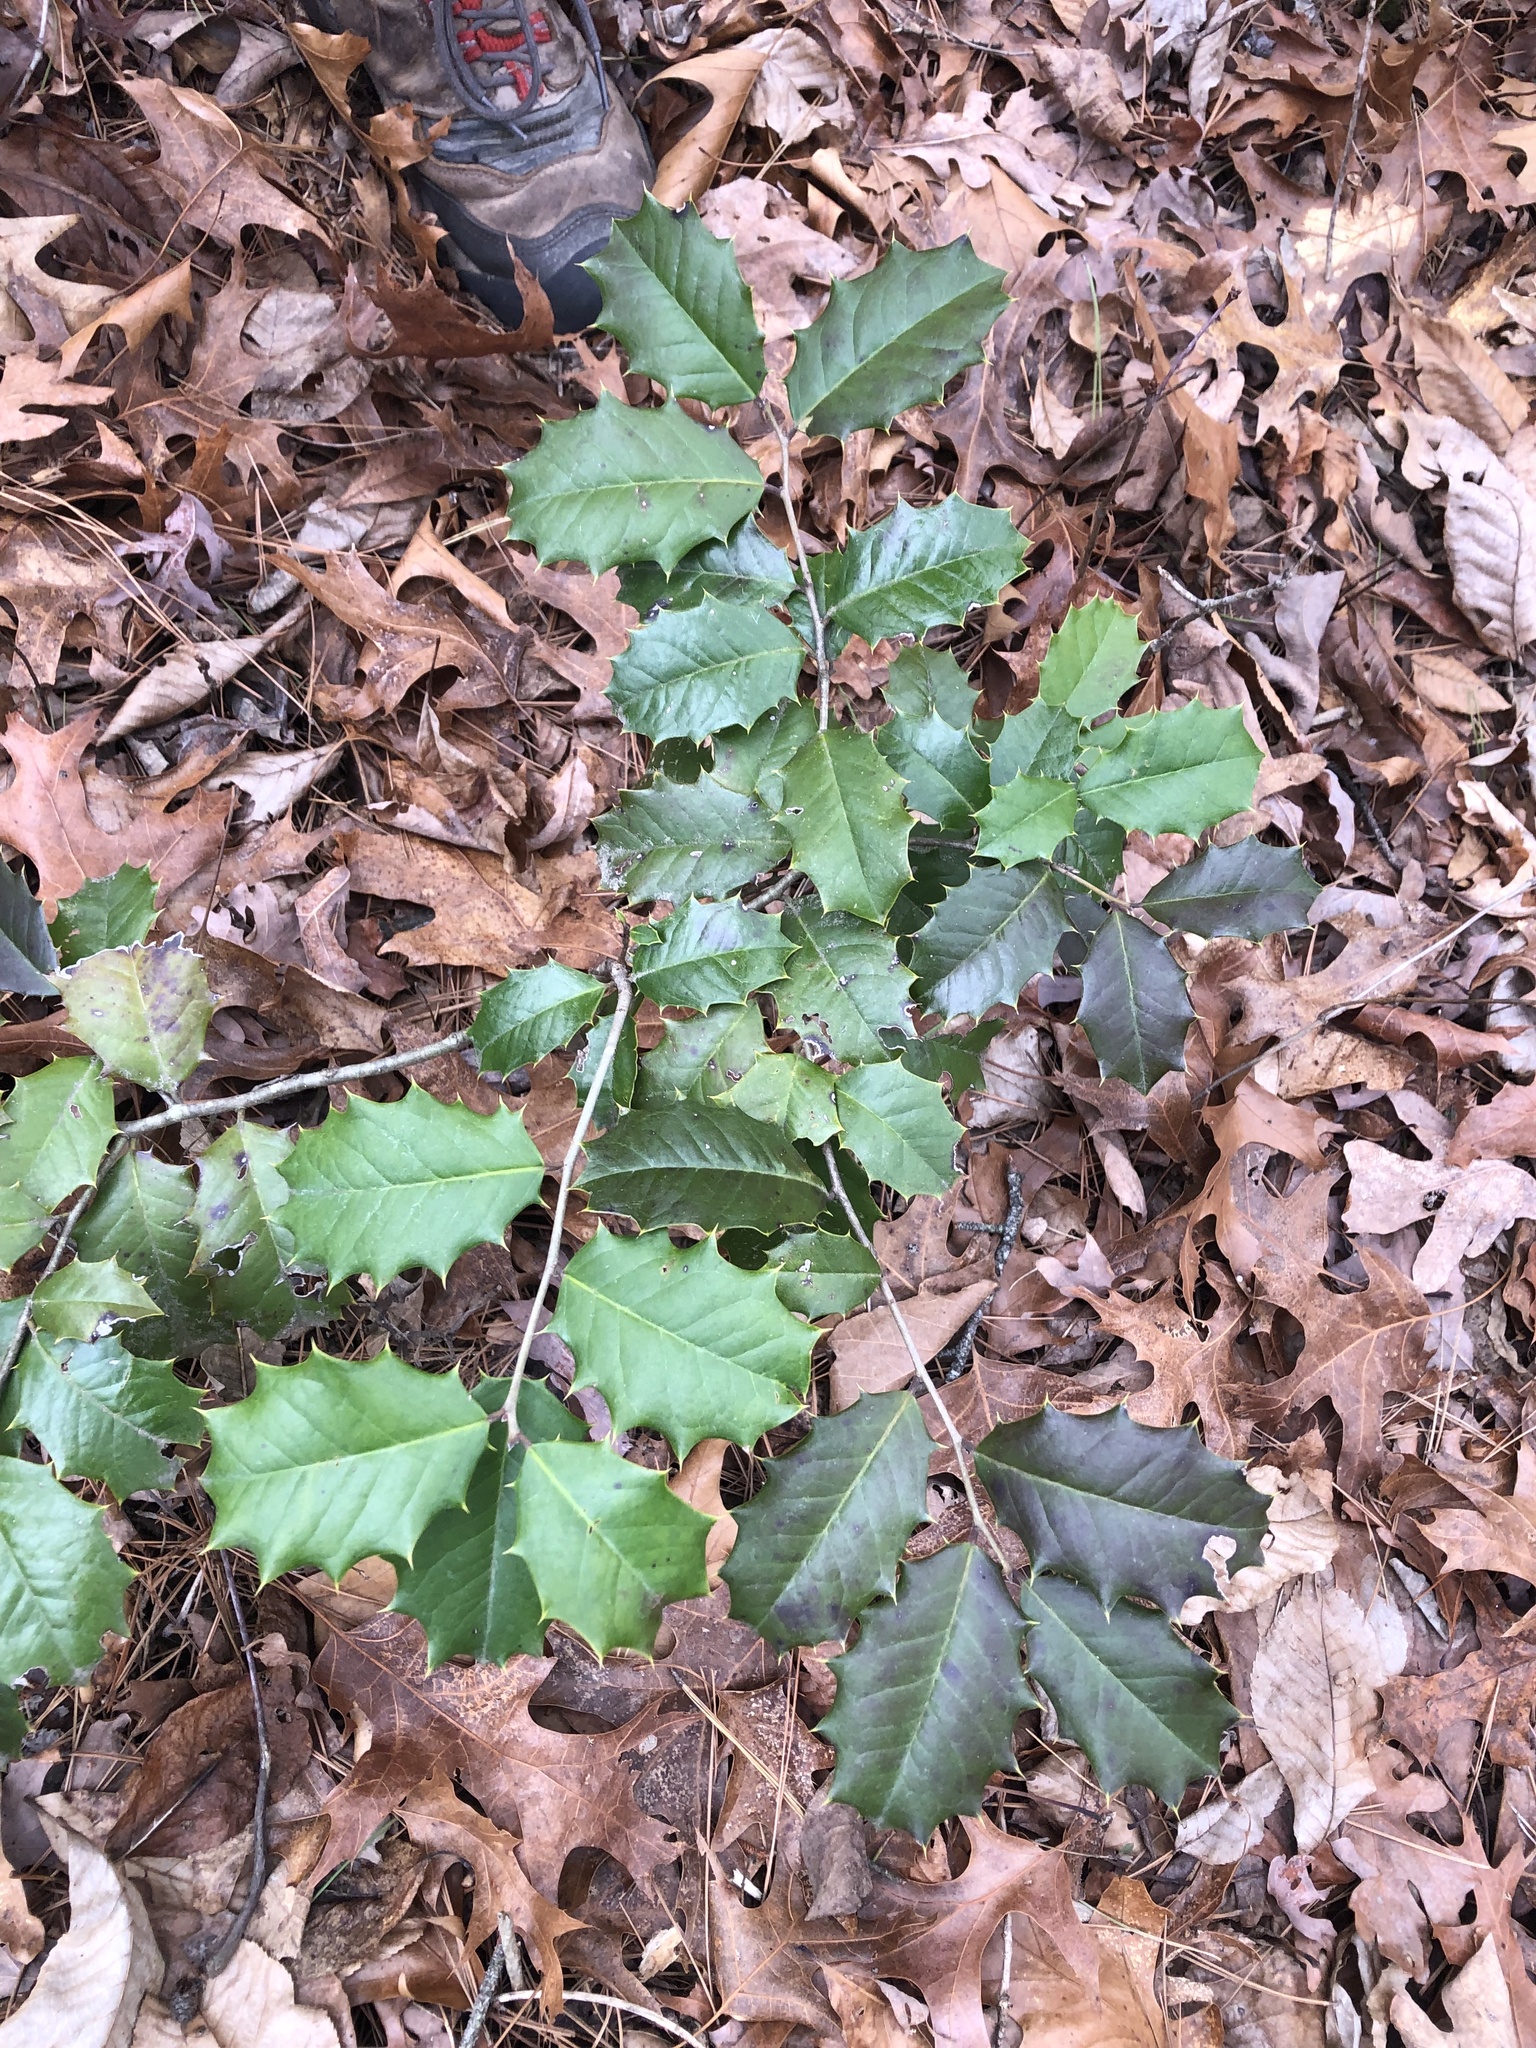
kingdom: Plantae
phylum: Tracheophyta
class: Magnoliopsida
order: Aquifoliales
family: Aquifoliaceae
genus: Ilex
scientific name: Ilex opaca
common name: American holly
